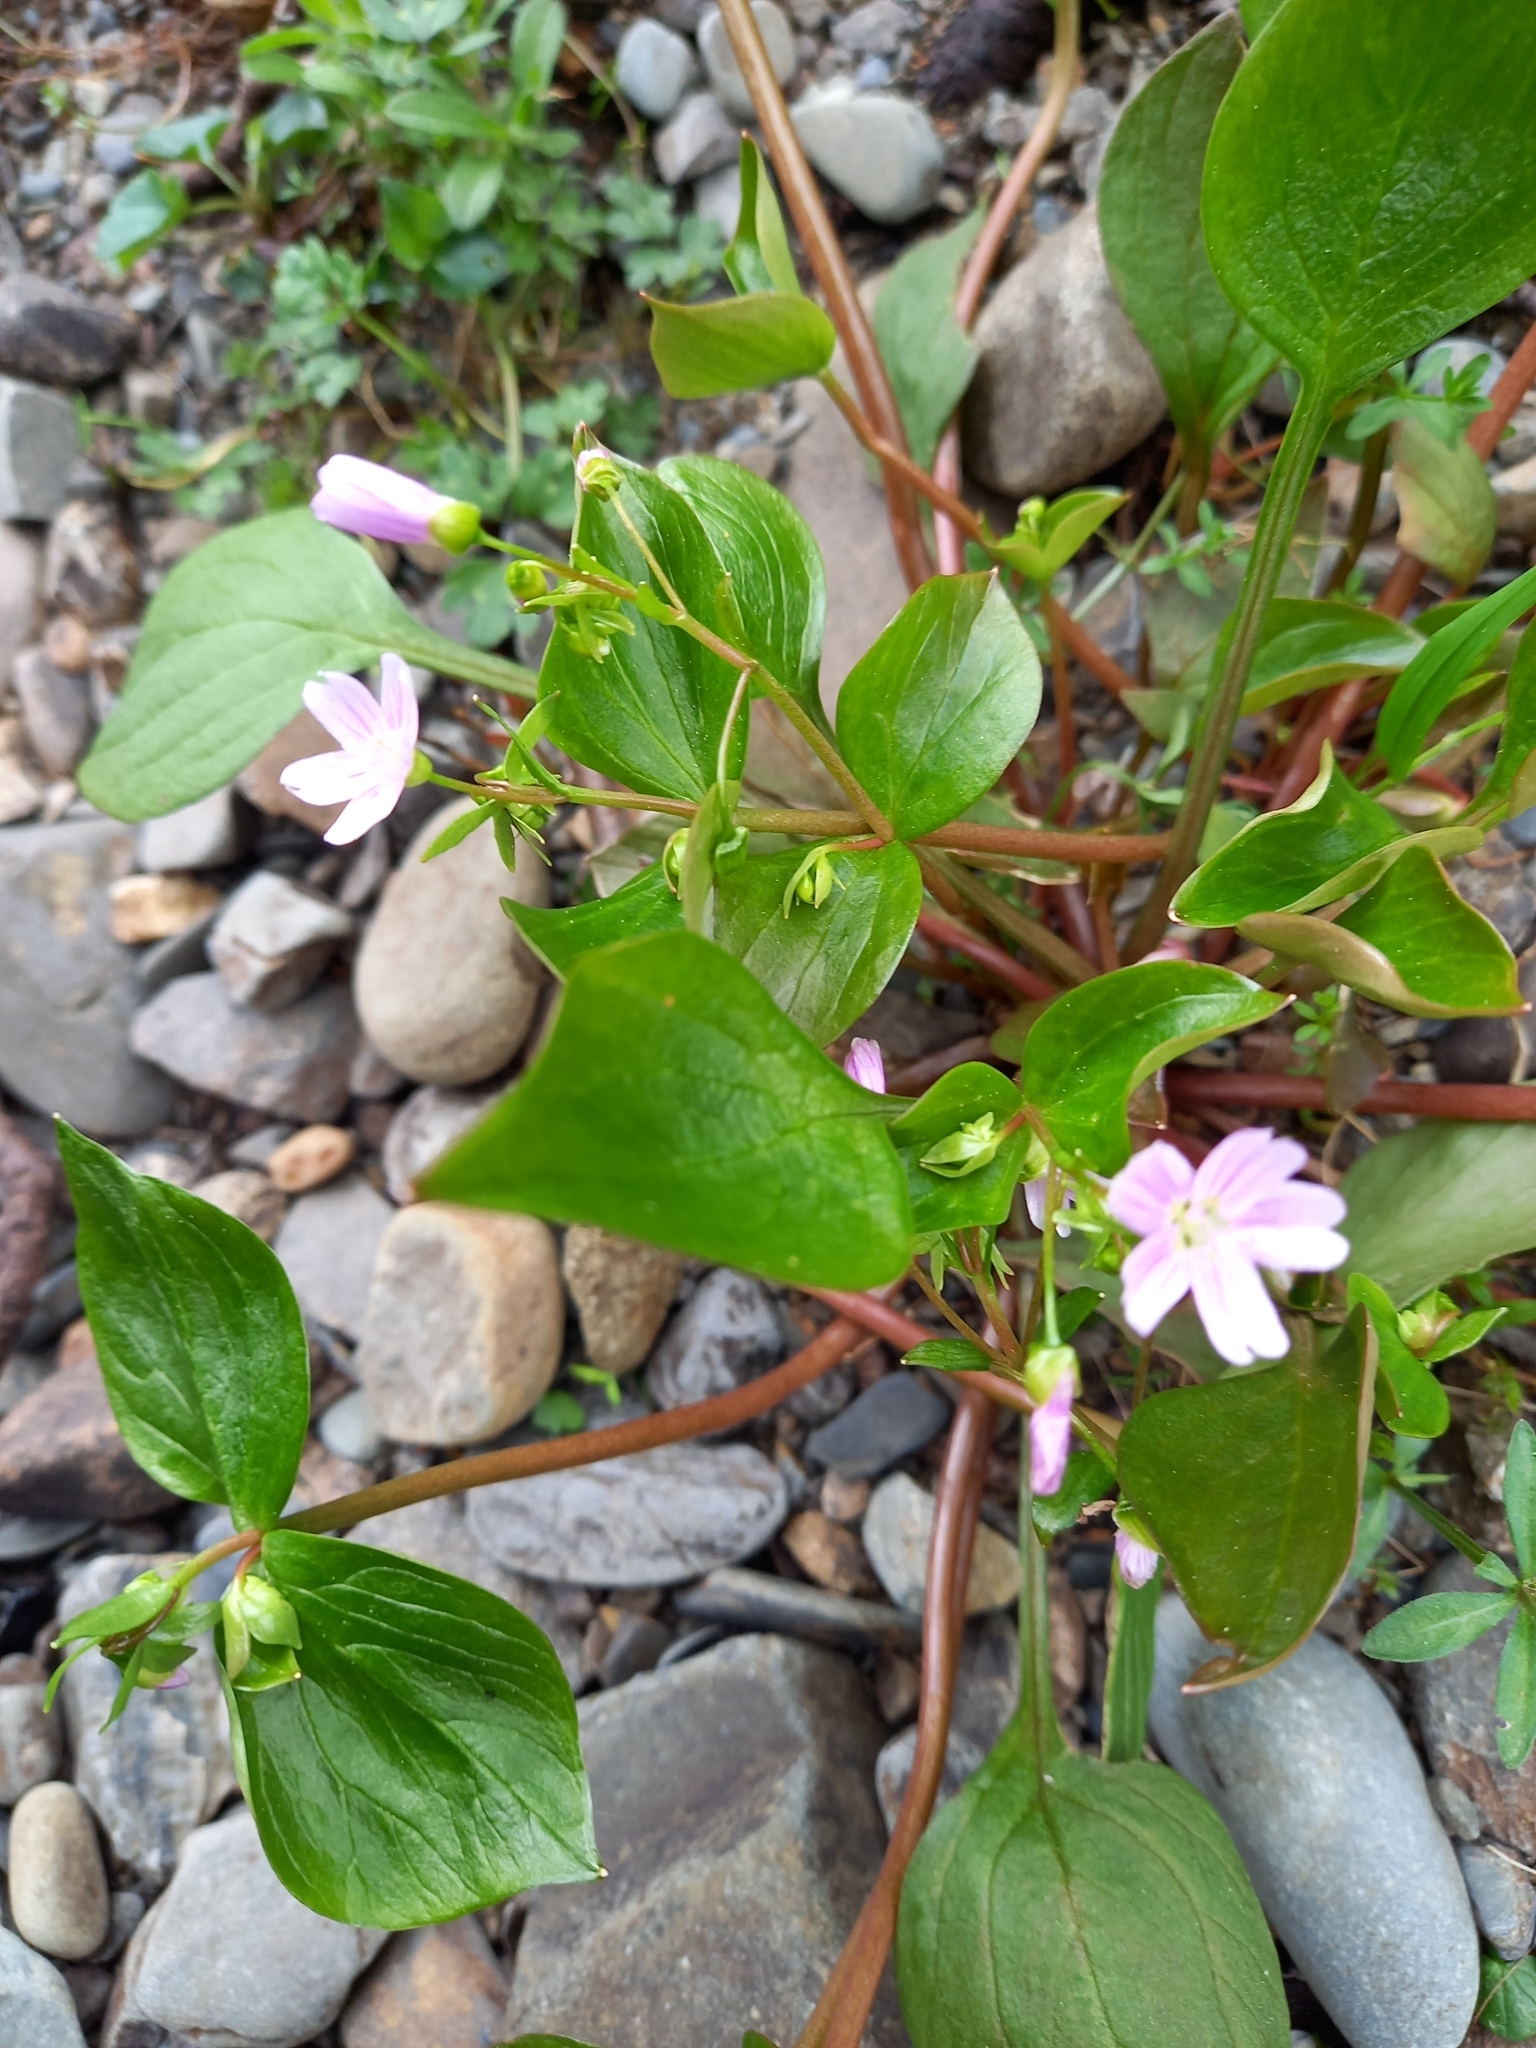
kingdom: Plantae
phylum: Tracheophyta
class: Magnoliopsida
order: Caryophyllales
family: Montiaceae
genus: Claytonia
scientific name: Claytonia sibirica
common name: Pink purslane
